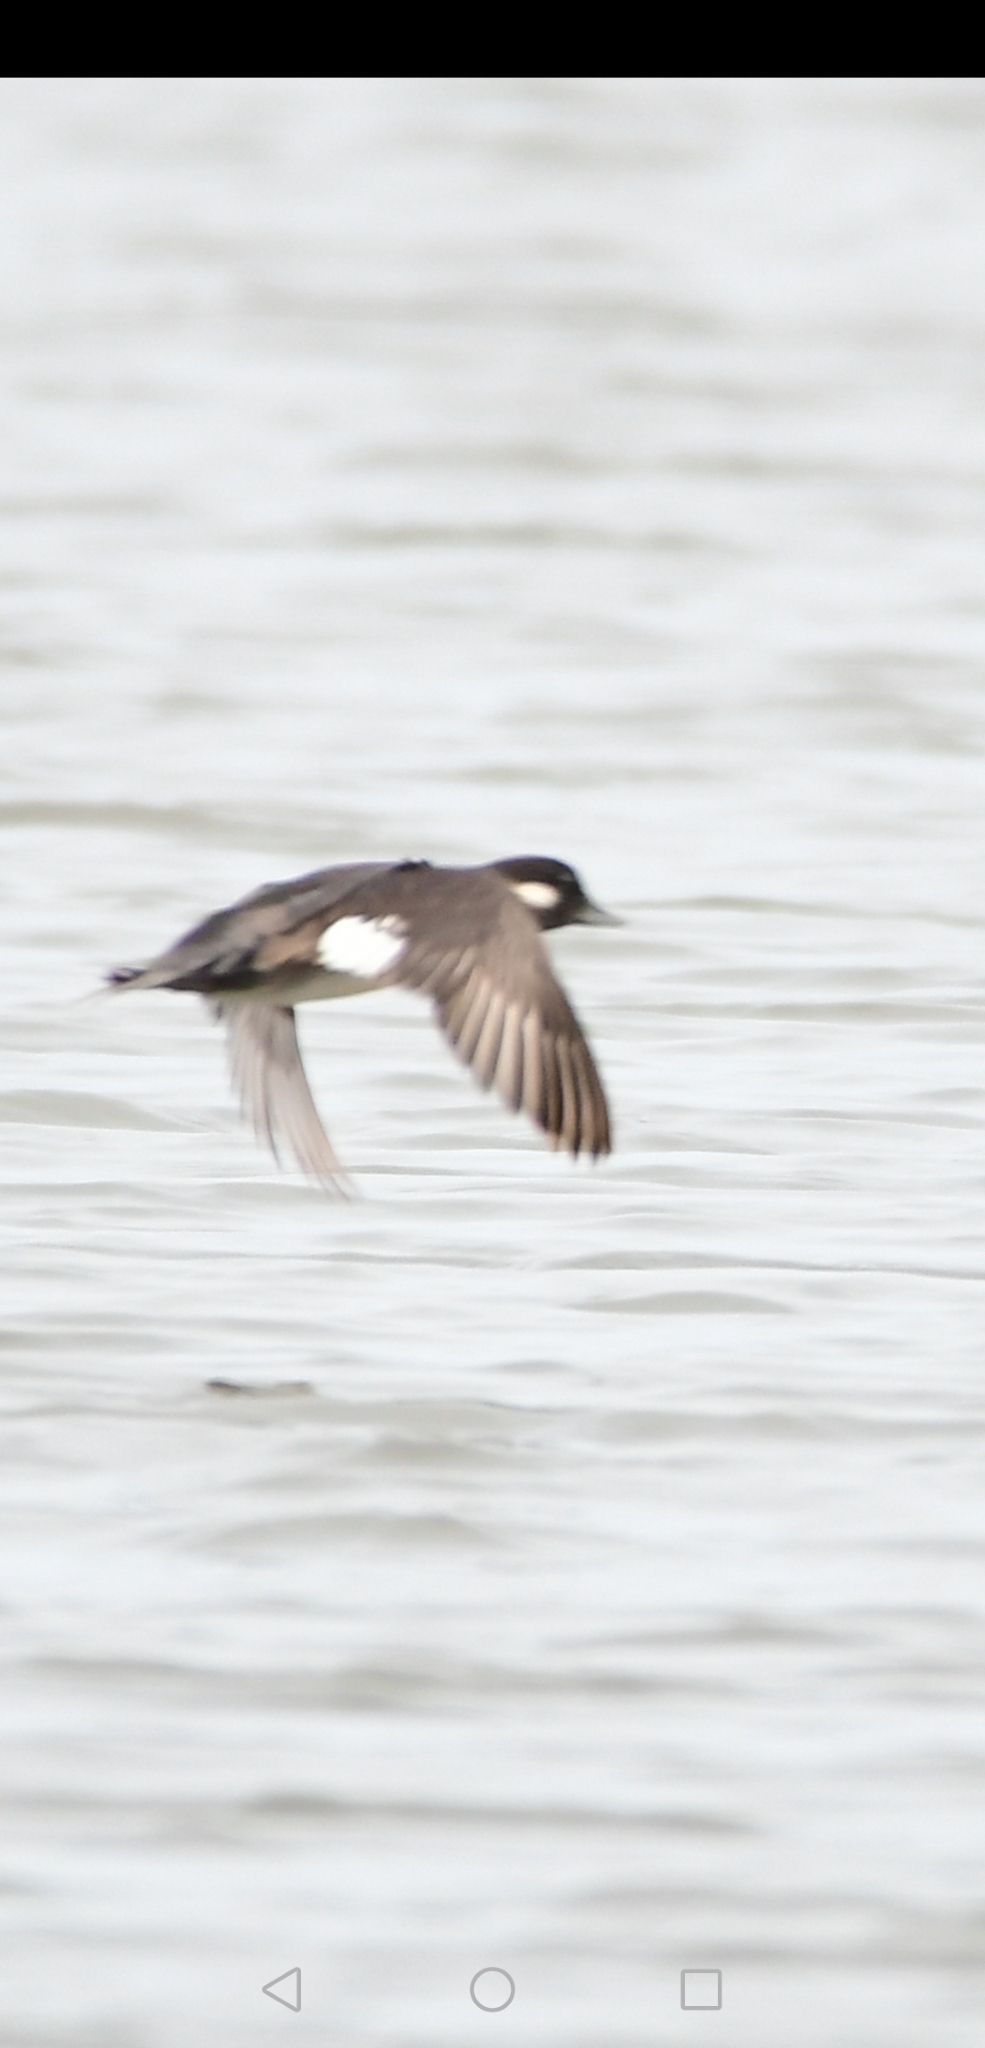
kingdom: Animalia
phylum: Chordata
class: Aves
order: Anseriformes
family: Anatidae
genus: Bucephala
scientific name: Bucephala albeola
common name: Bufflehead
